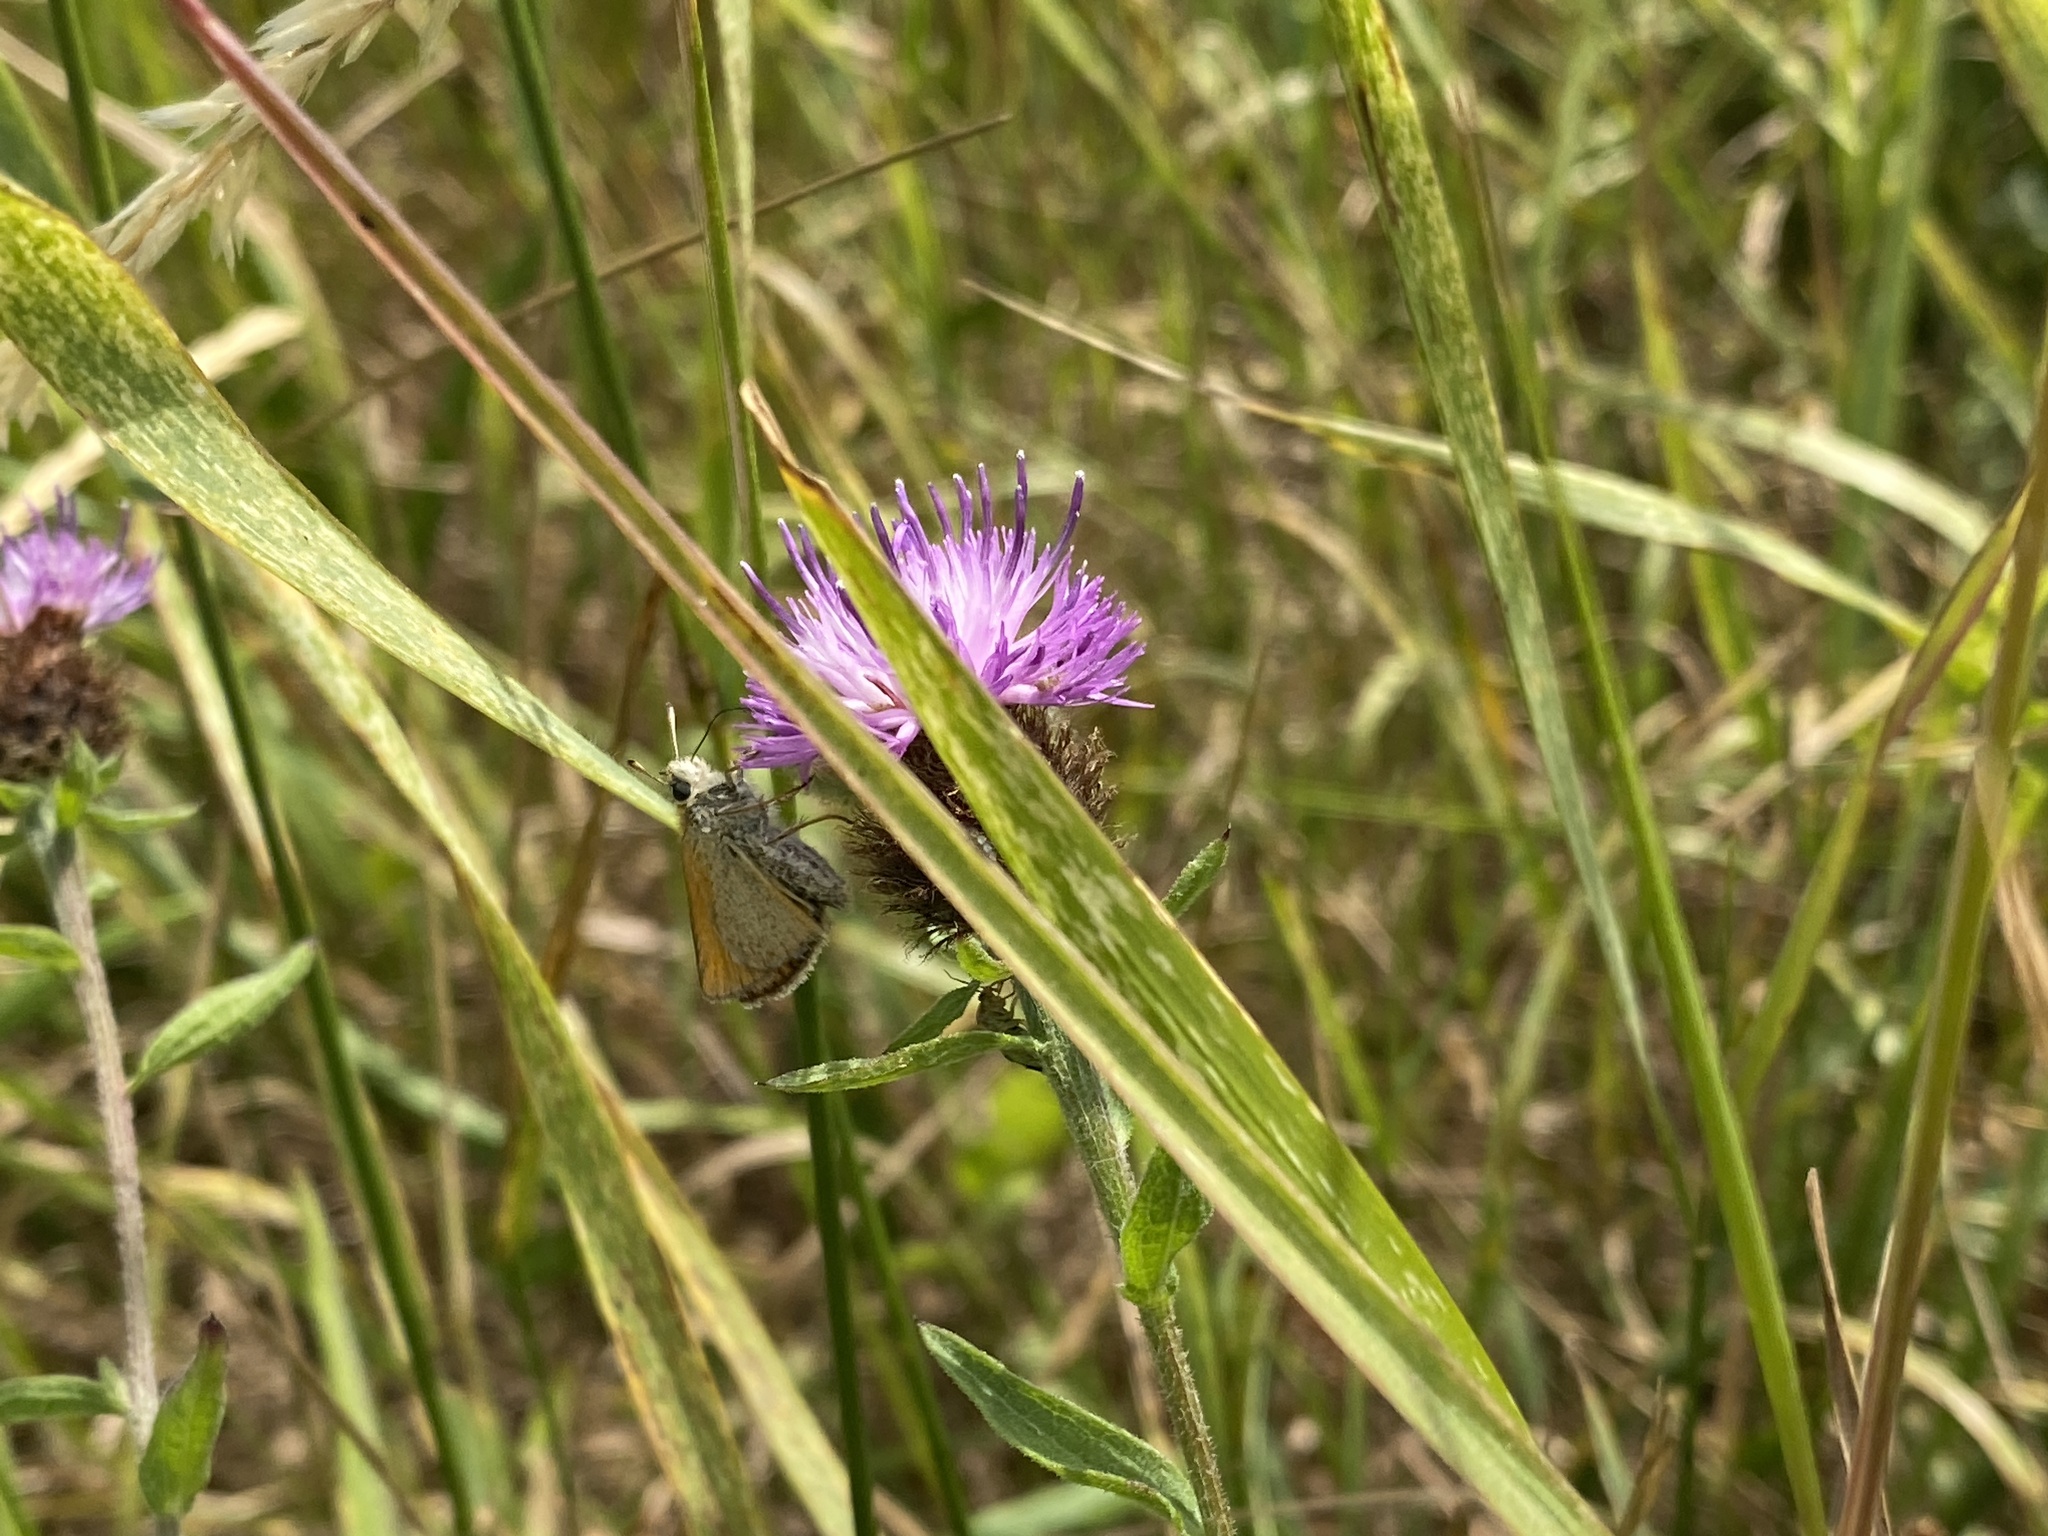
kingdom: Animalia
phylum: Arthropoda
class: Insecta
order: Lepidoptera
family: Hesperiidae
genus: Thymelicus
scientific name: Thymelicus lineola
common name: Essex skipper
